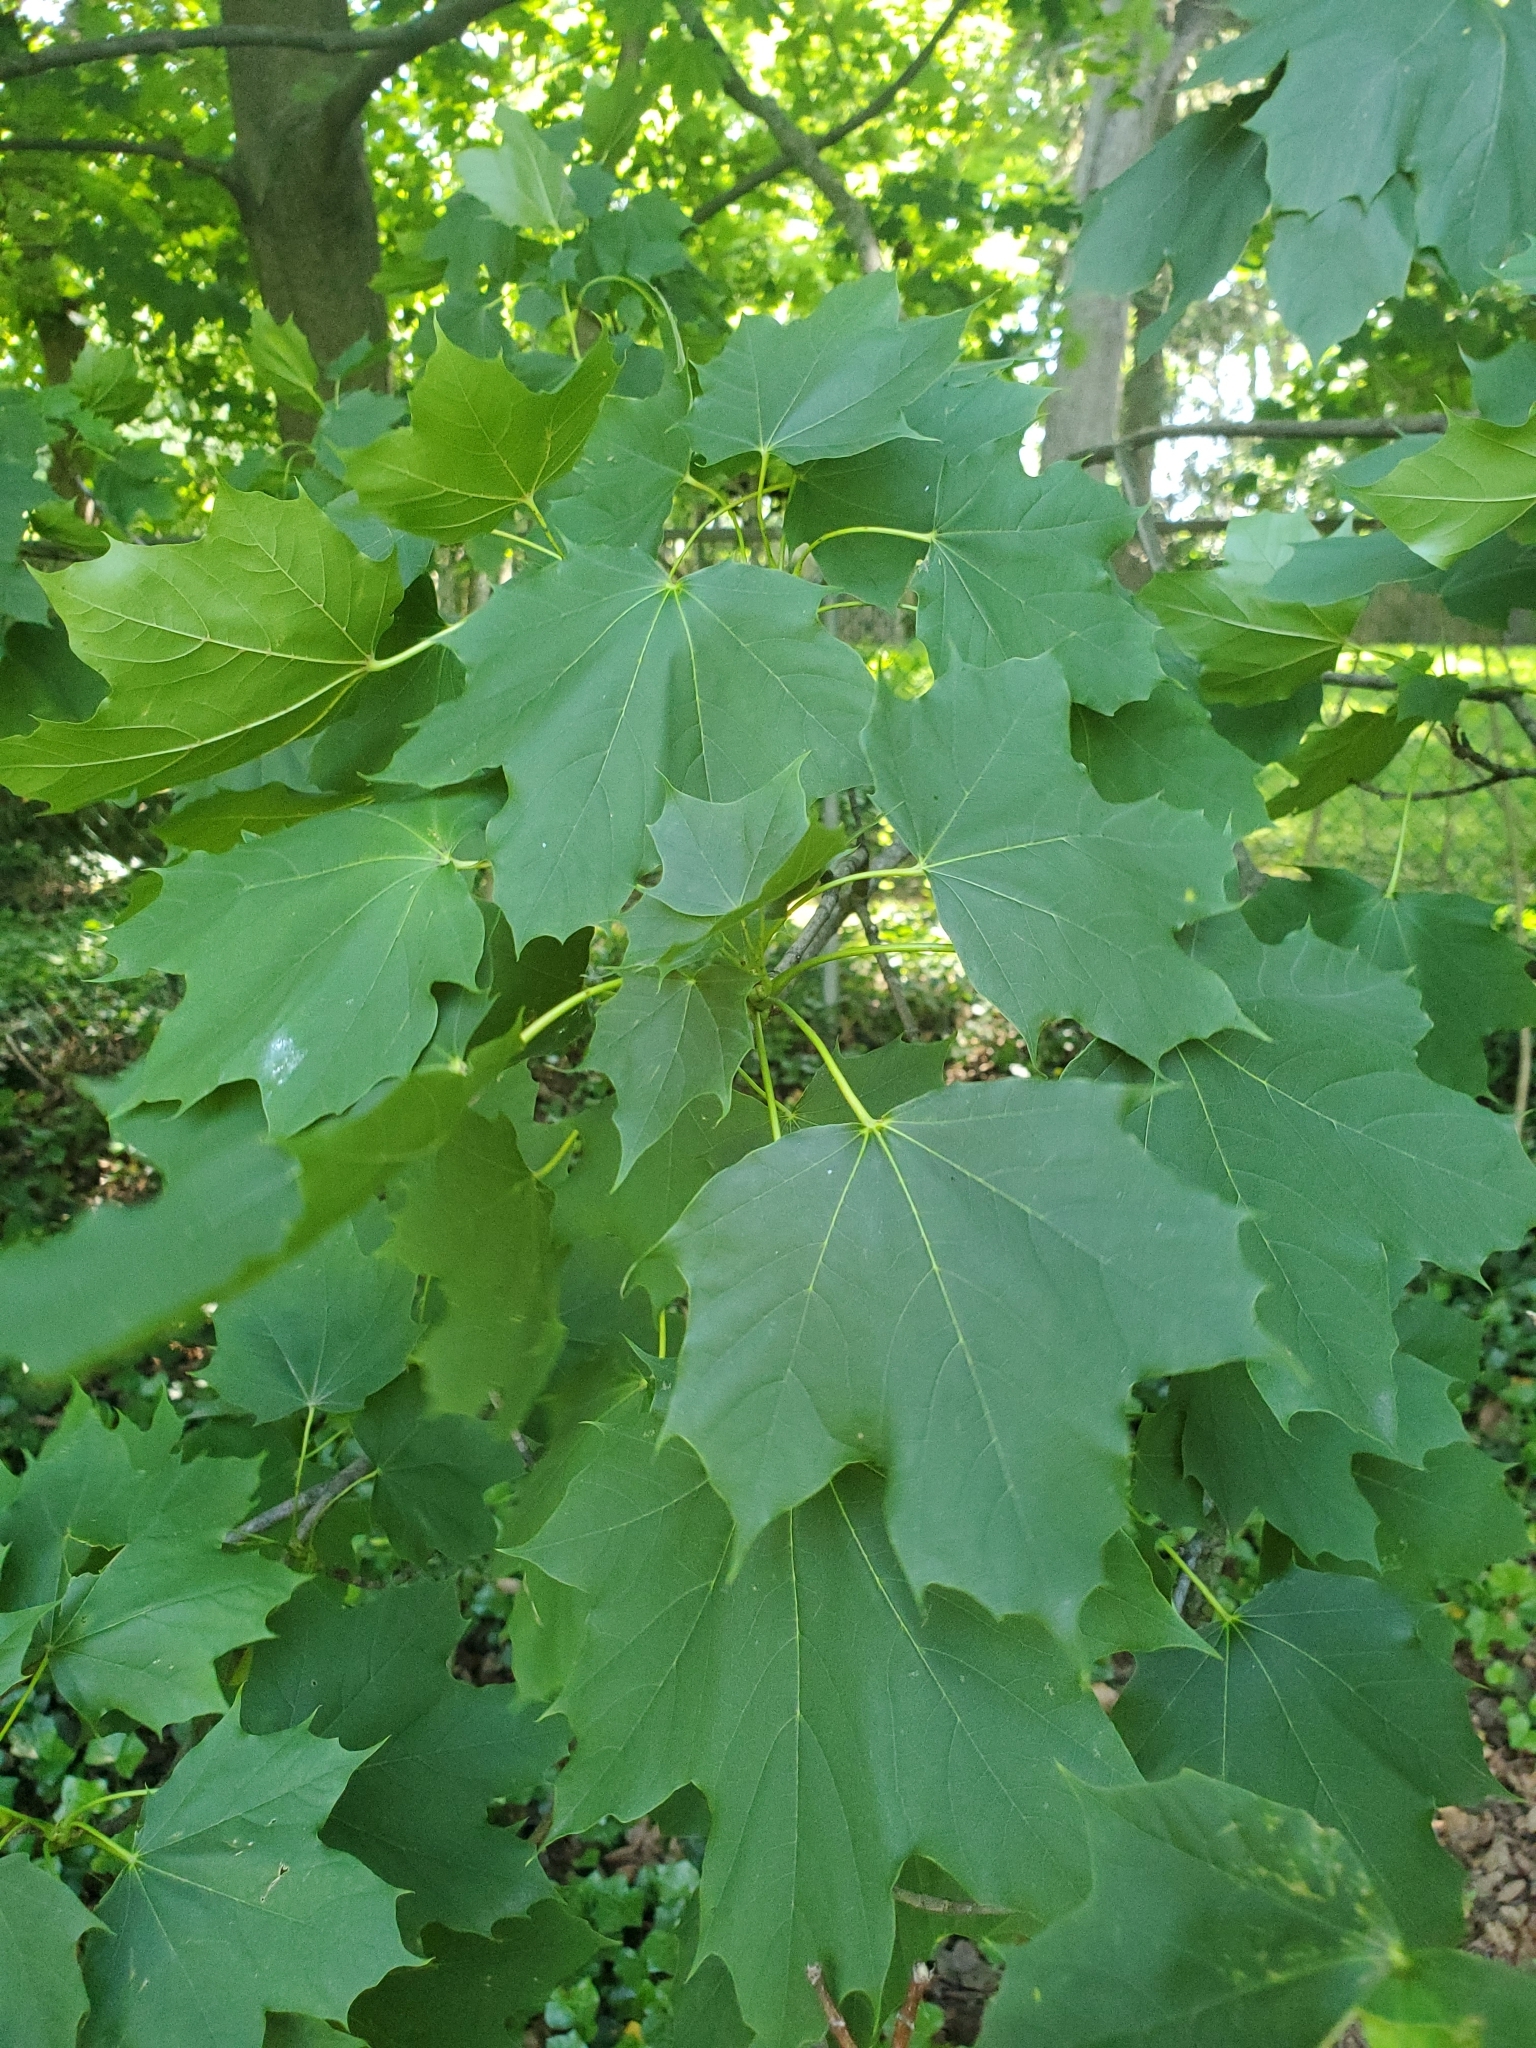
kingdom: Plantae
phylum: Tracheophyta
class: Magnoliopsida
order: Sapindales
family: Sapindaceae
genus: Acer
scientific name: Acer platanoides
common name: Norway maple
